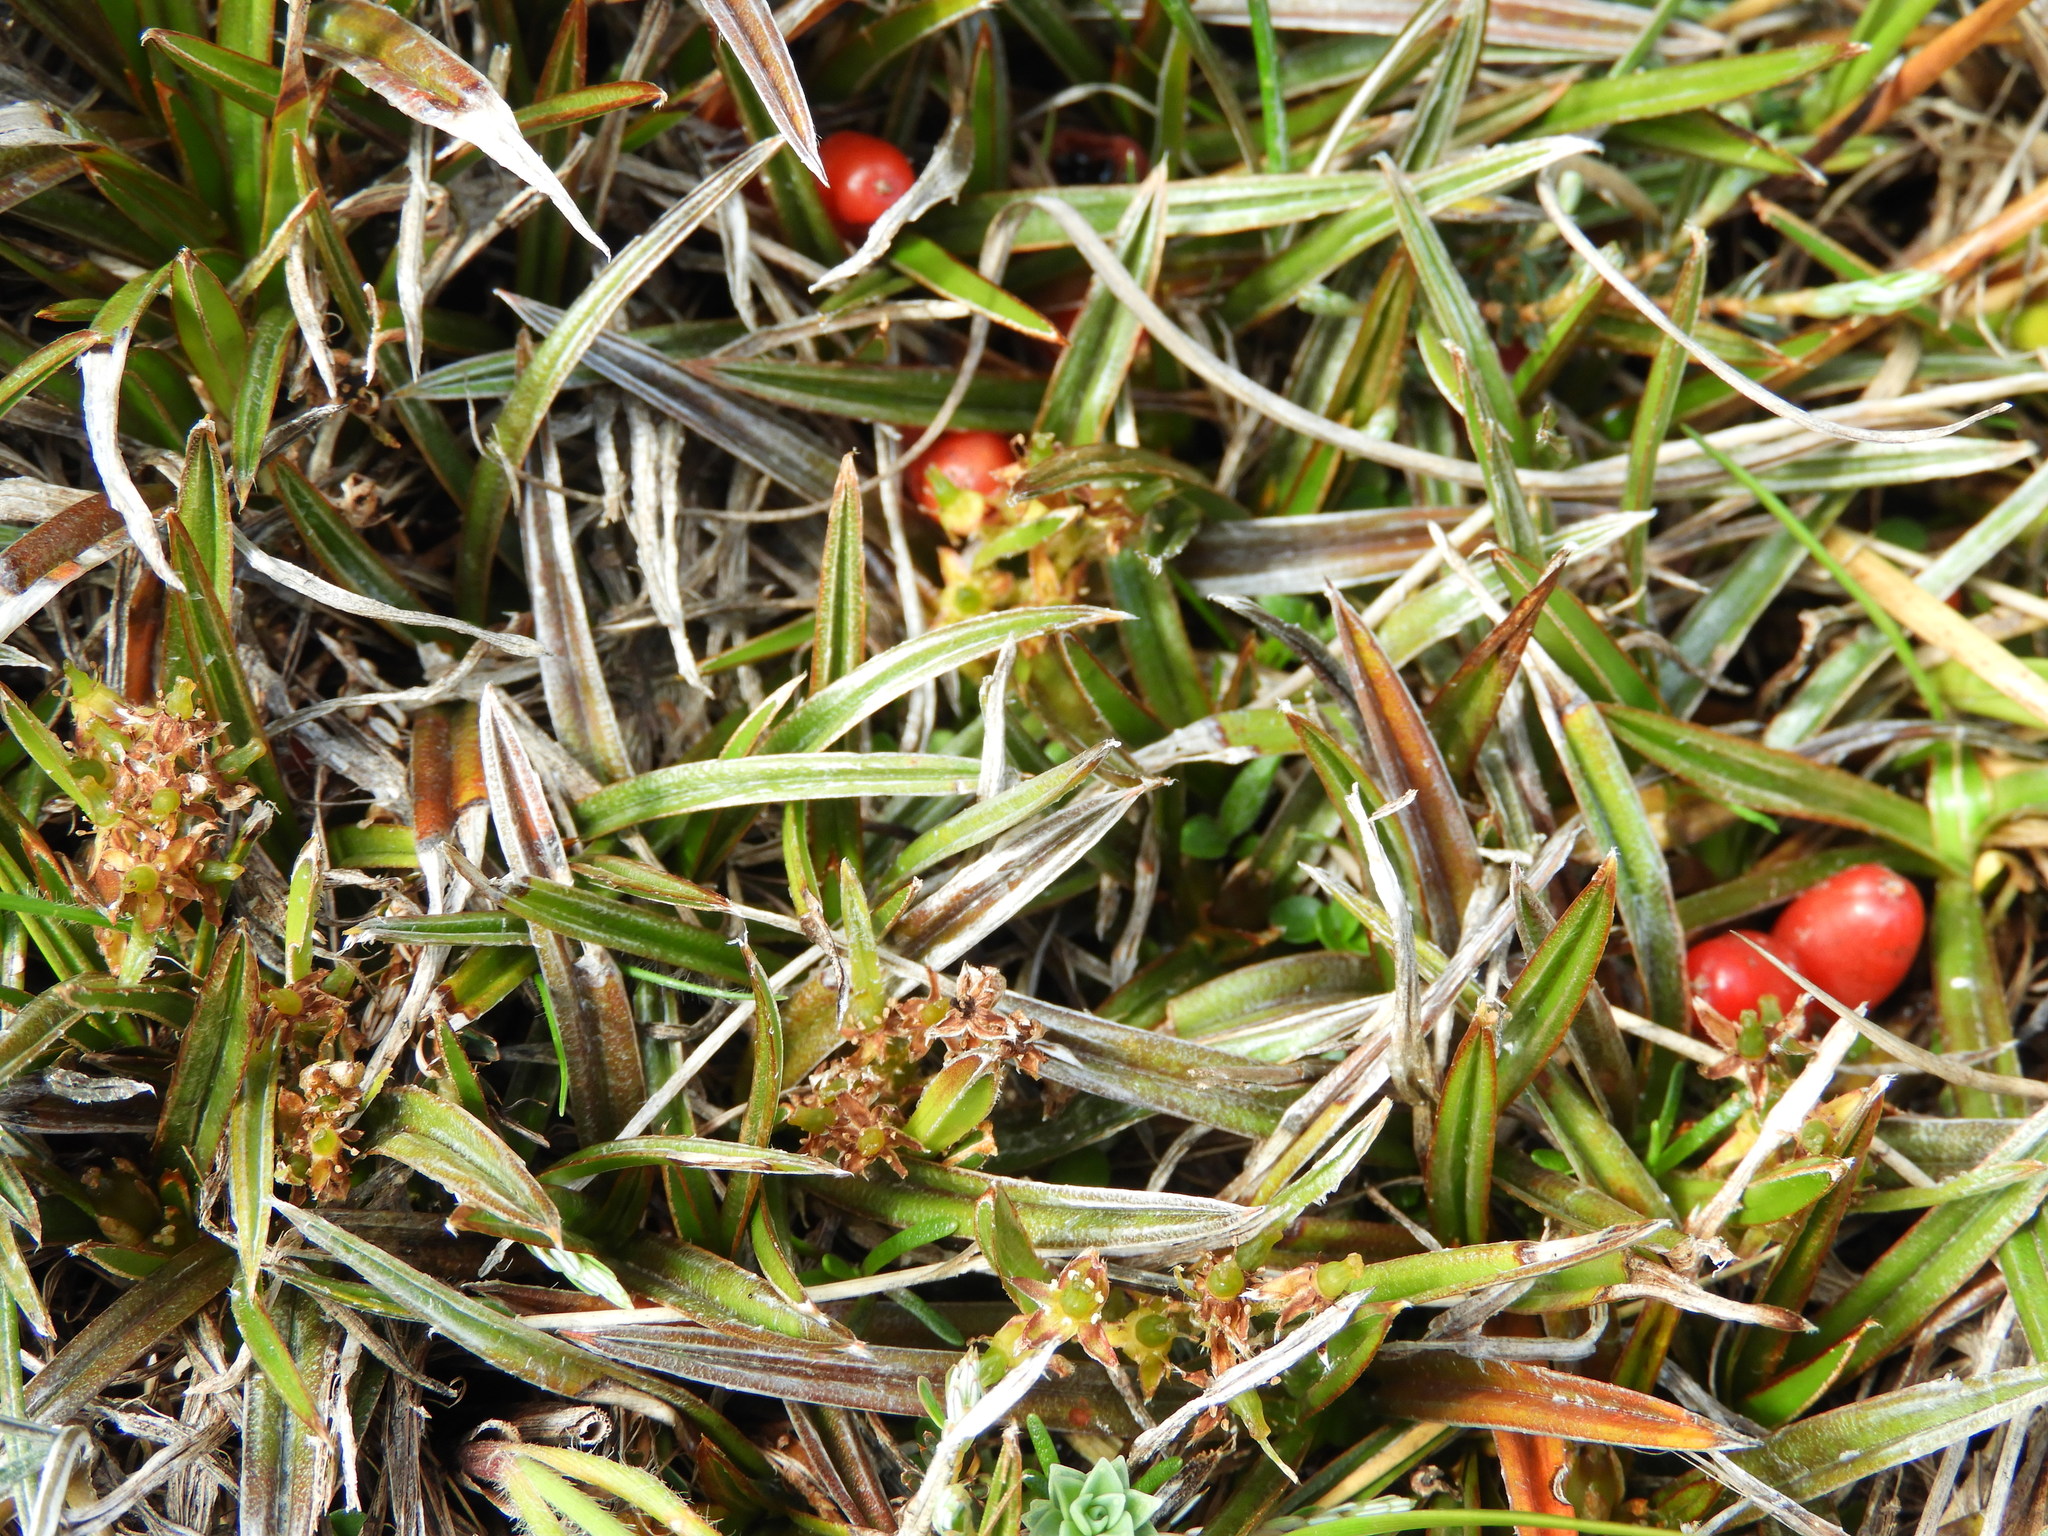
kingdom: Plantae
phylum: Tracheophyta
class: Liliopsida
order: Asparagales
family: Asteliaceae
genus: Astelia
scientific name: Astelia linearis
